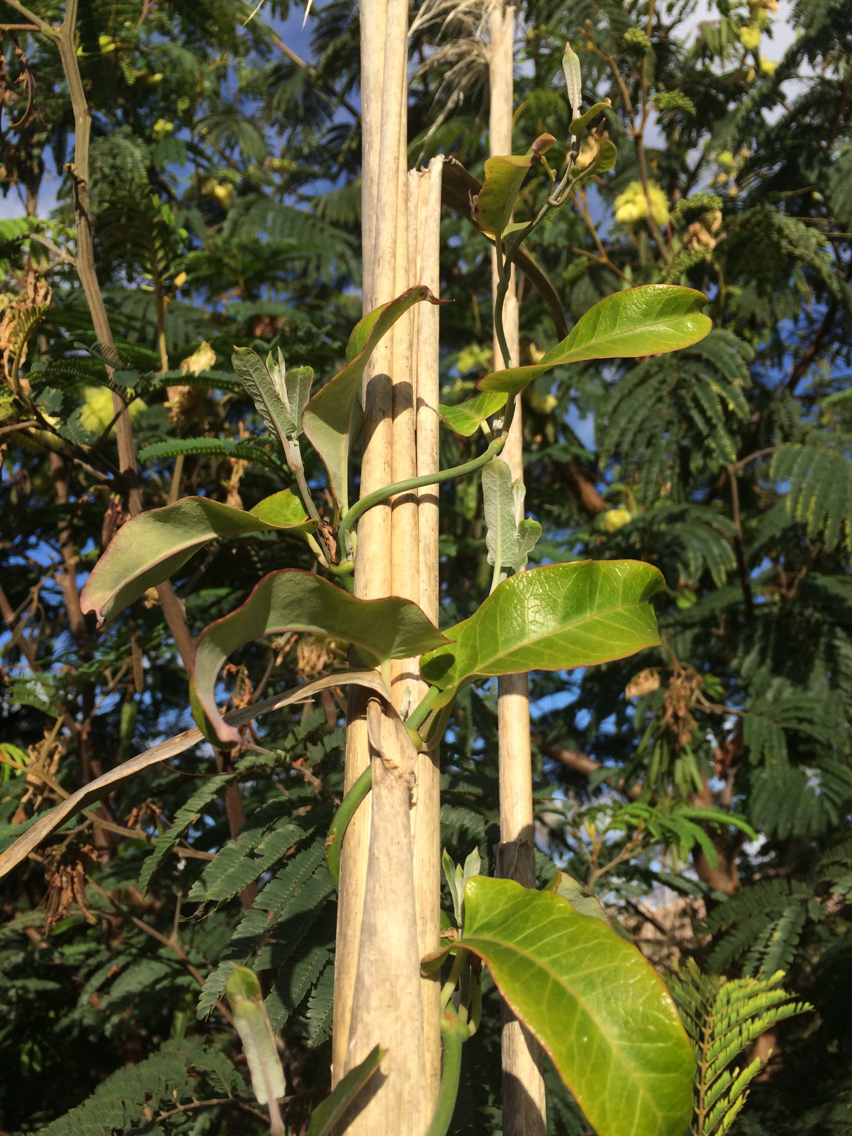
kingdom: Plantae
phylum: Tracheophyta
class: Magnoliopsida
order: Gentianales
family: Apocynaceae
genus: Araujia
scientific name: Araujia sericifera
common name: White bladderflower
